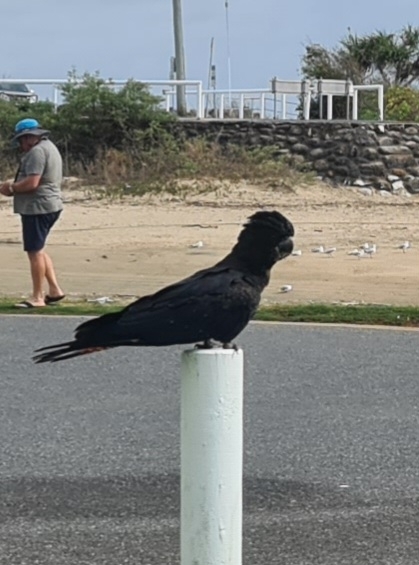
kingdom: Animalia
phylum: Chordata
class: Aves
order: Psittaciformes
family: Psittacidae
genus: Calyptorhynchus
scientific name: Calyptorhynchus banksii
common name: Red-tailed black cockatoo
